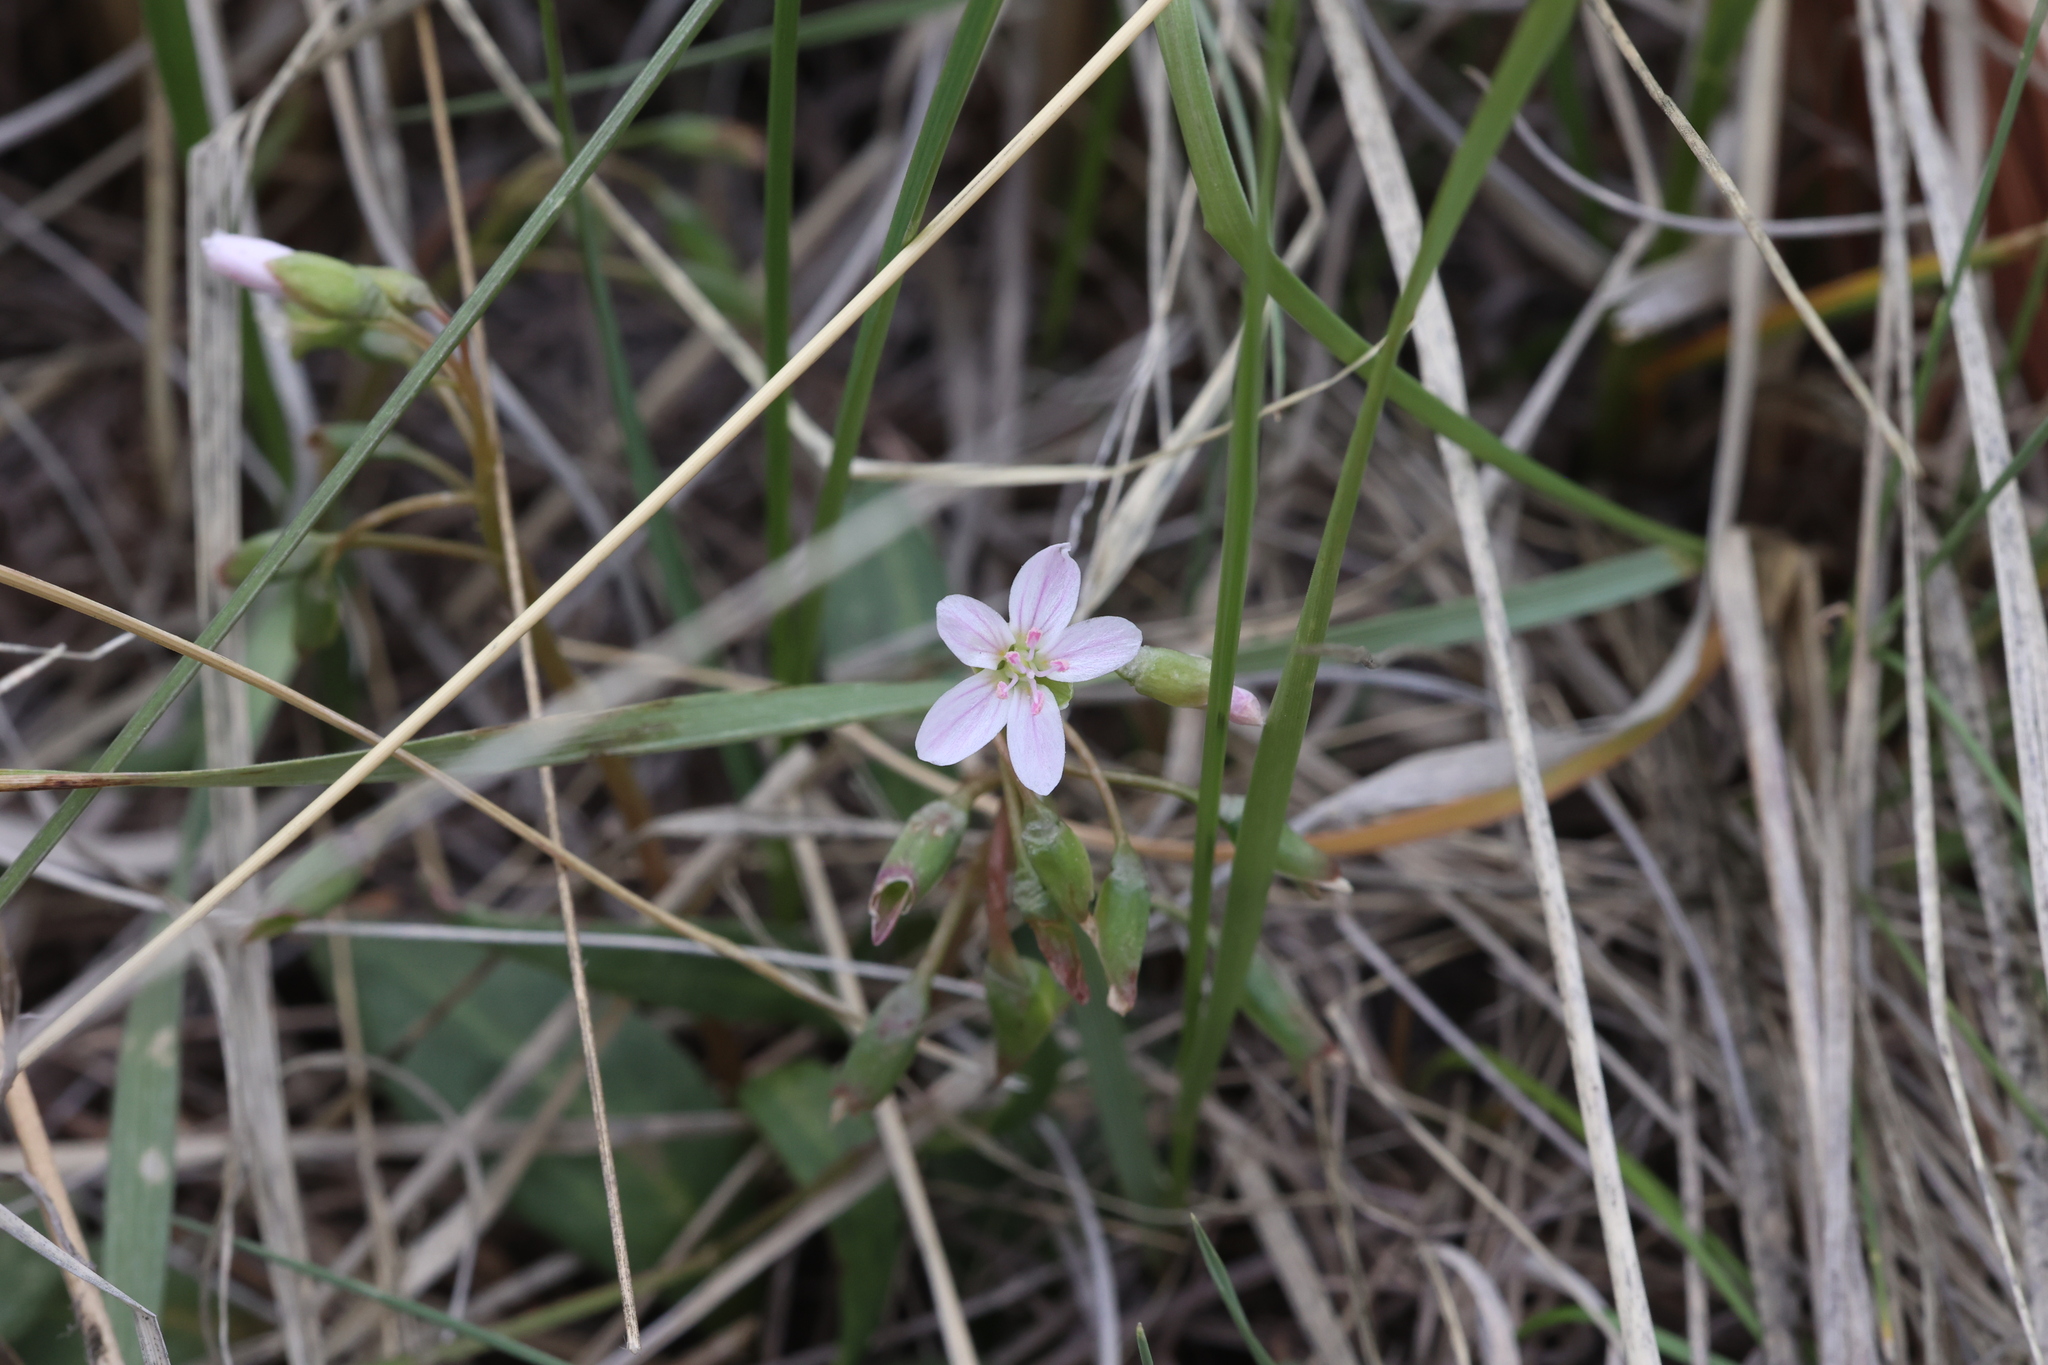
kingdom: Plantae
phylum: Tracheophyta
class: Magnoliopsida
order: Caryophyllales
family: Montiaceae
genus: Claytonia
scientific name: Claytonia rosea
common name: Rocky mountain spring-beauty
